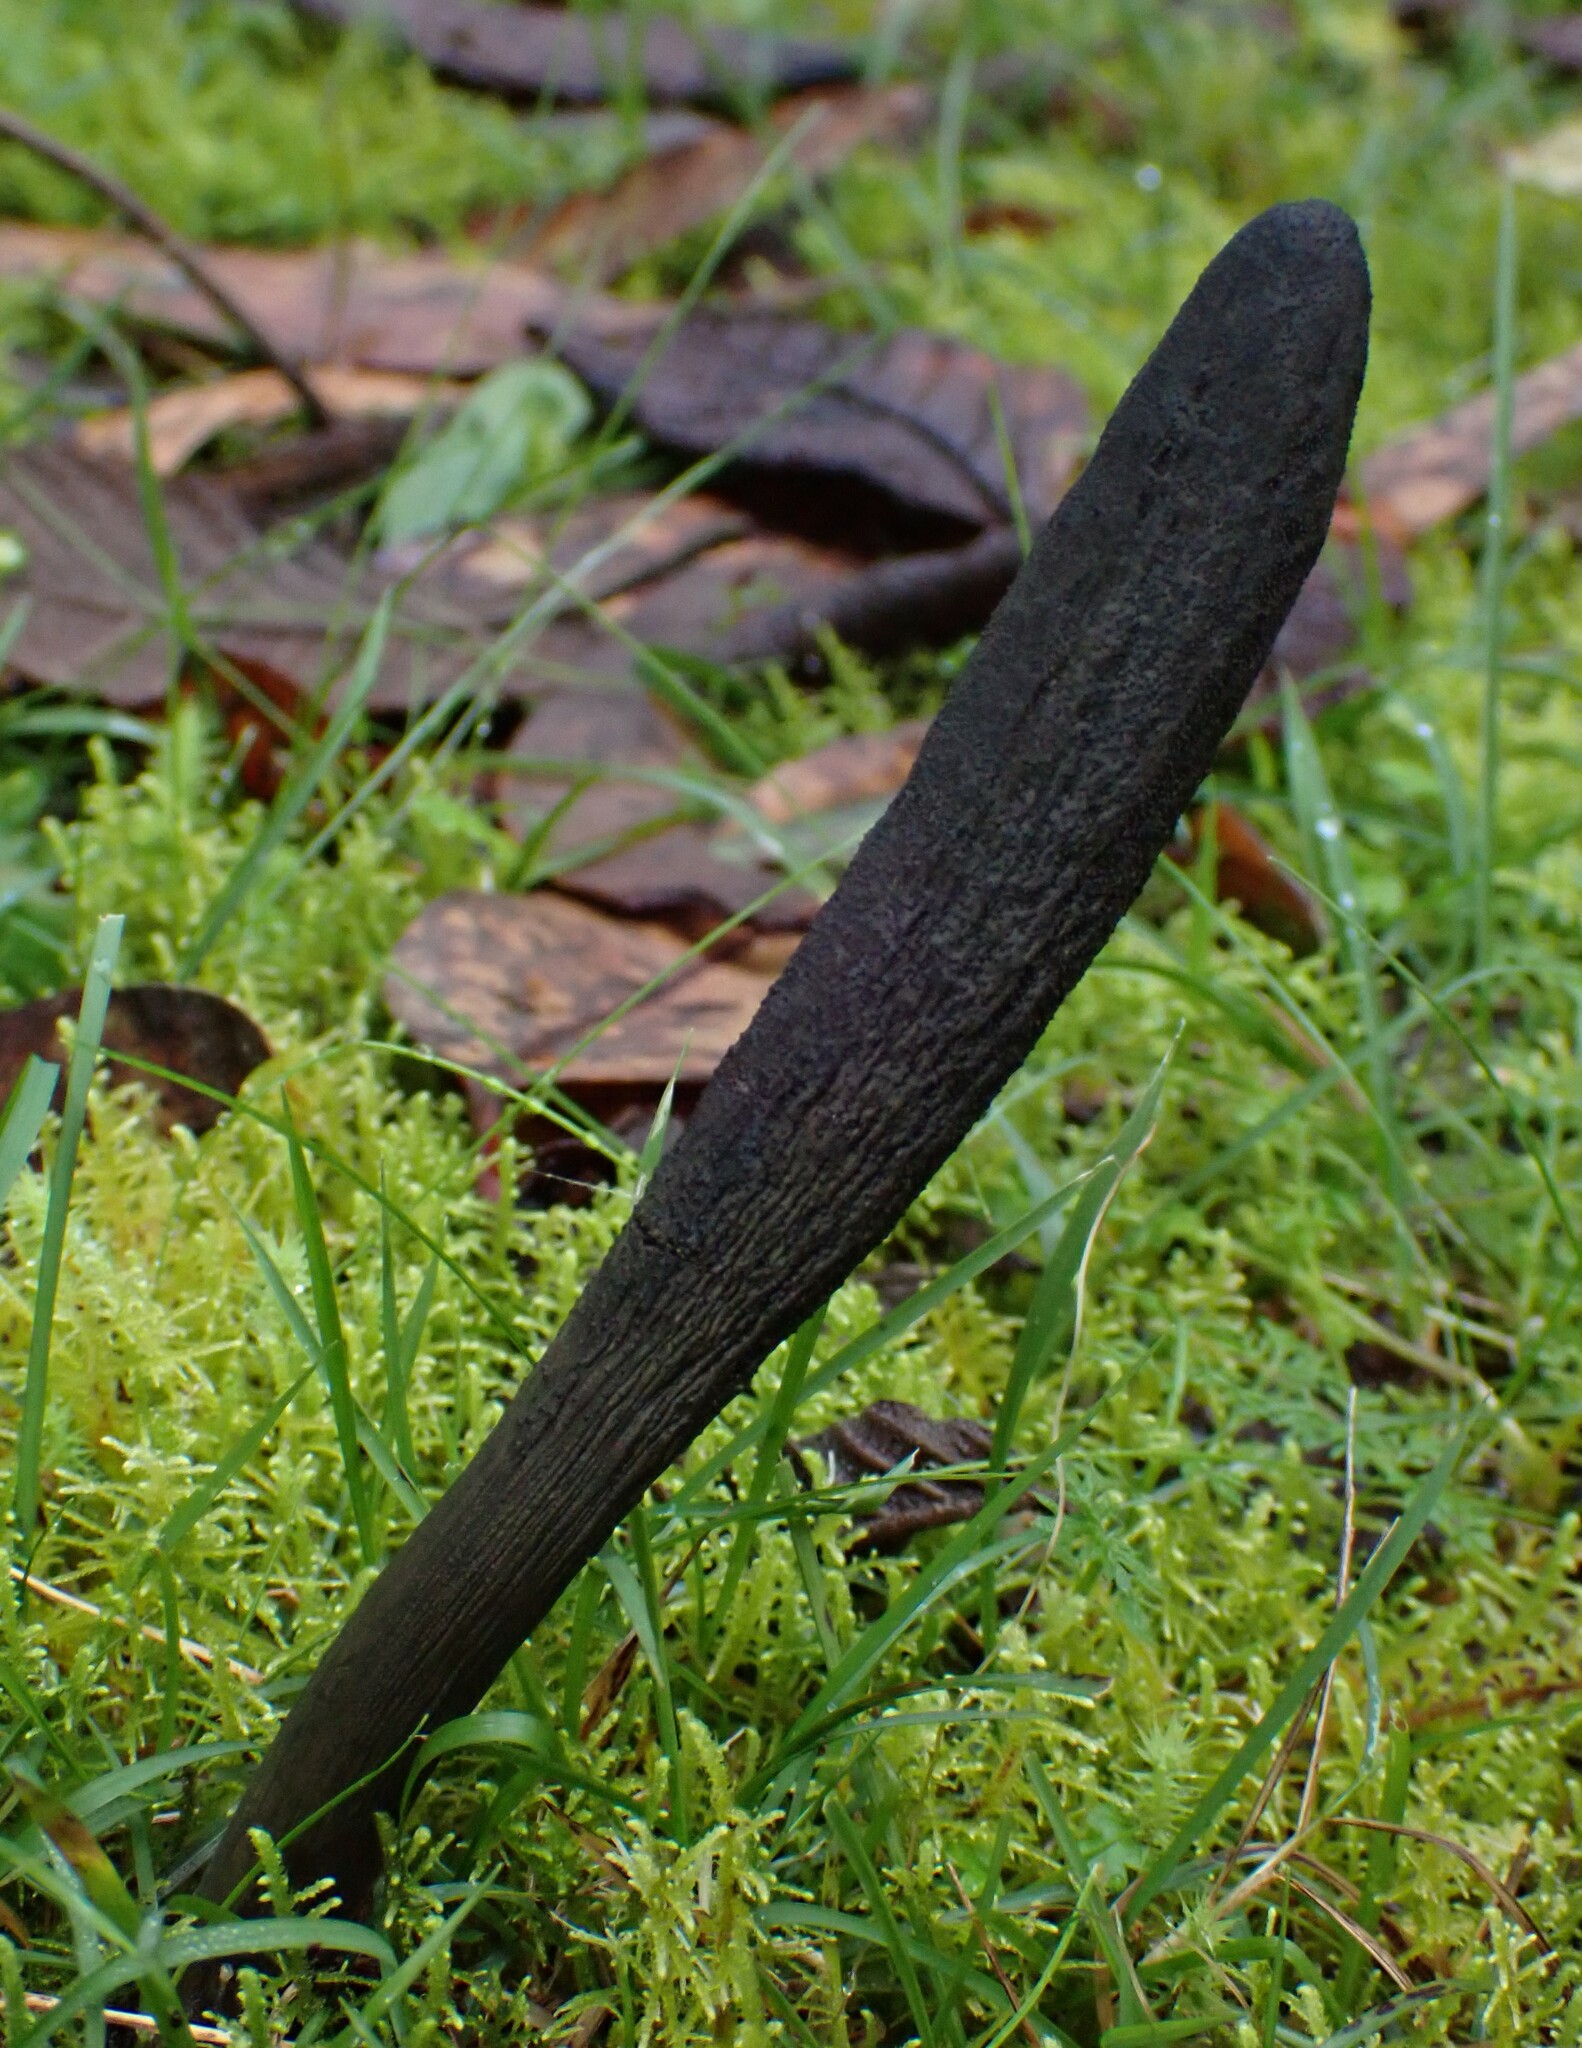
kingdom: Fungi
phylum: Ascomycota
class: Sordariomycetes
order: Hypocreales
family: Clavicipitaceae
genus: Drechmeria
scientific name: Drechmeria gunnii
